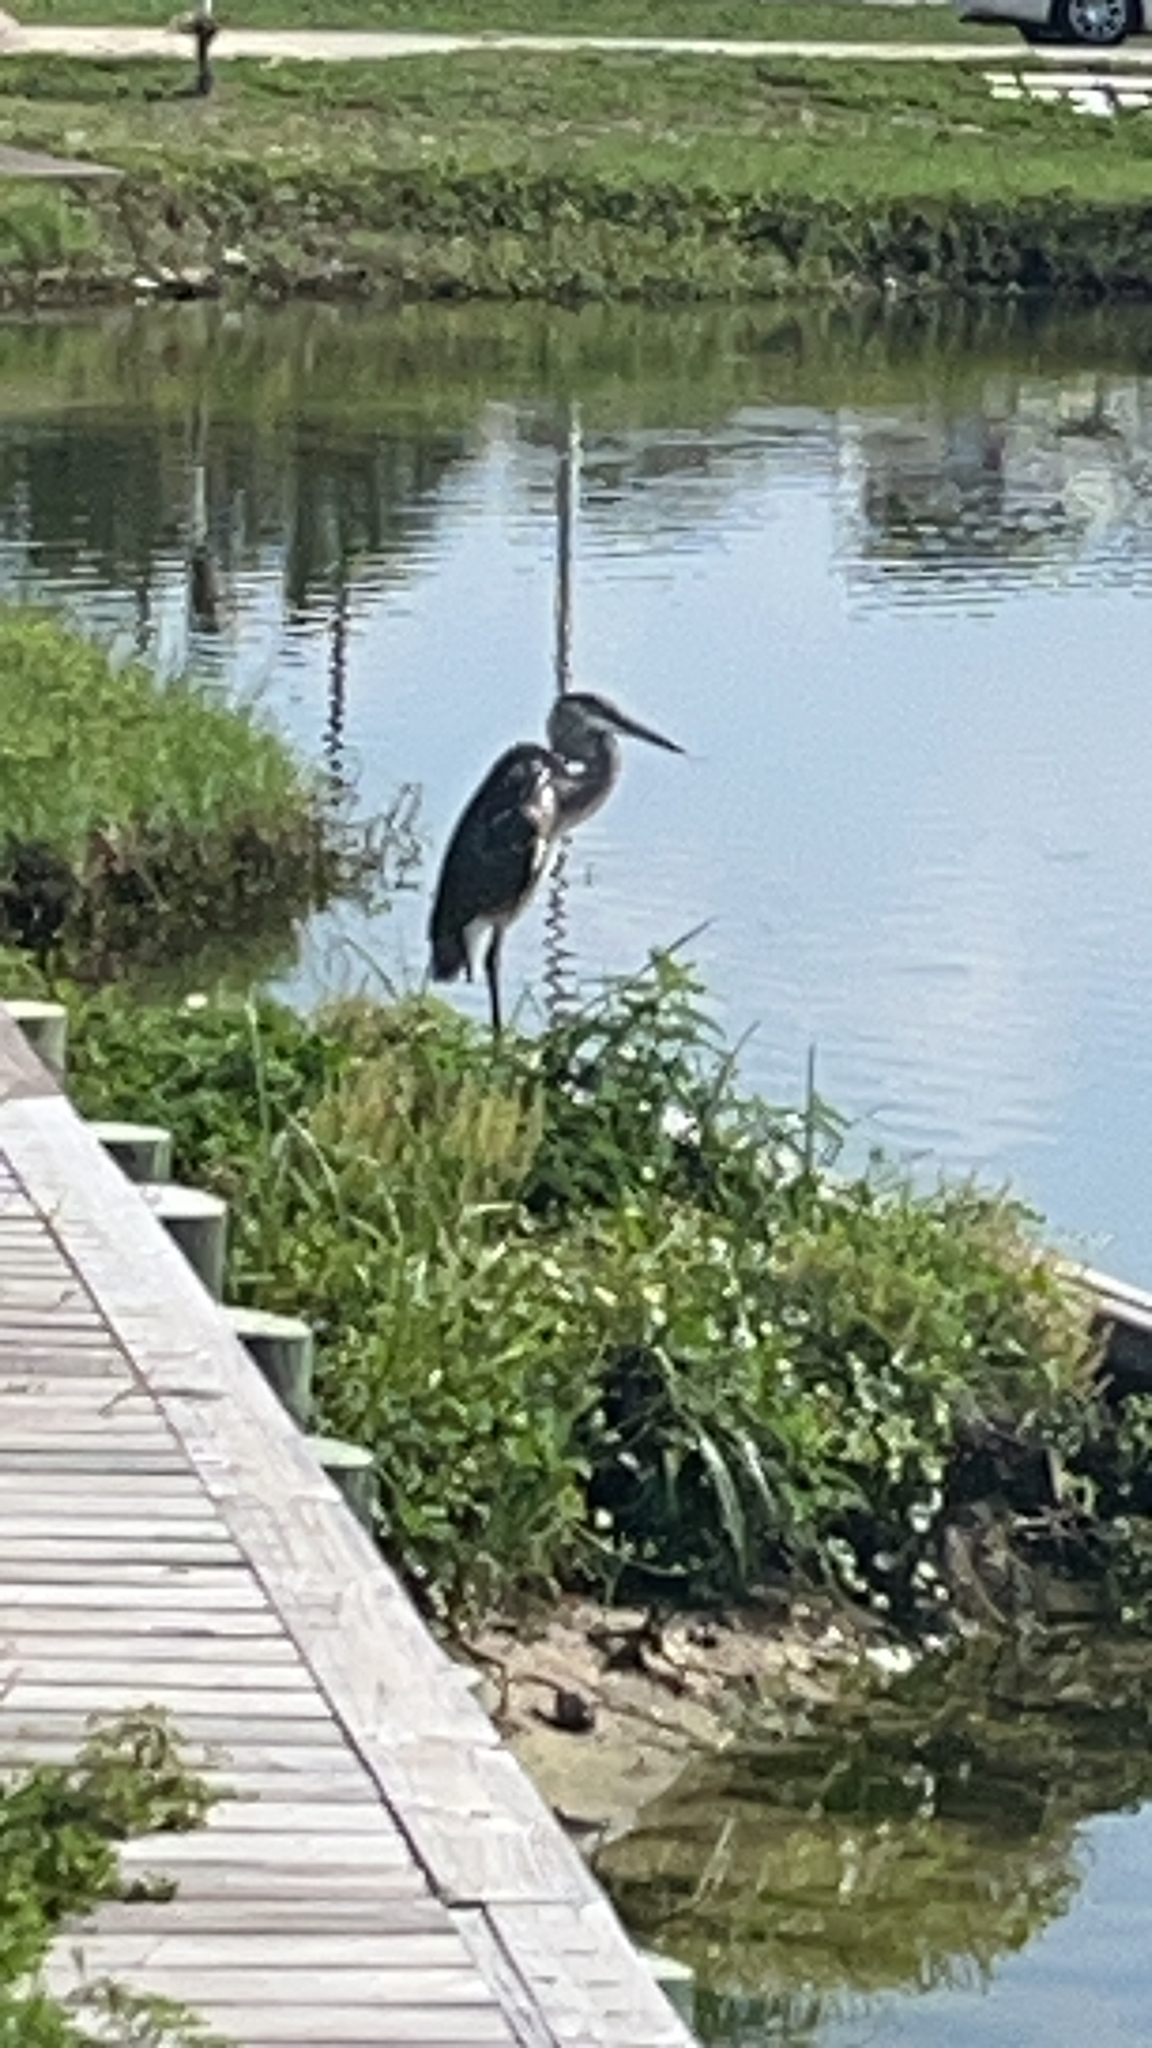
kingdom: Animalia
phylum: Chordata
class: Aves
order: Pelecaniformes
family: Ardeidae
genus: Ardea
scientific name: Ardea herodias
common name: Great blue heron
